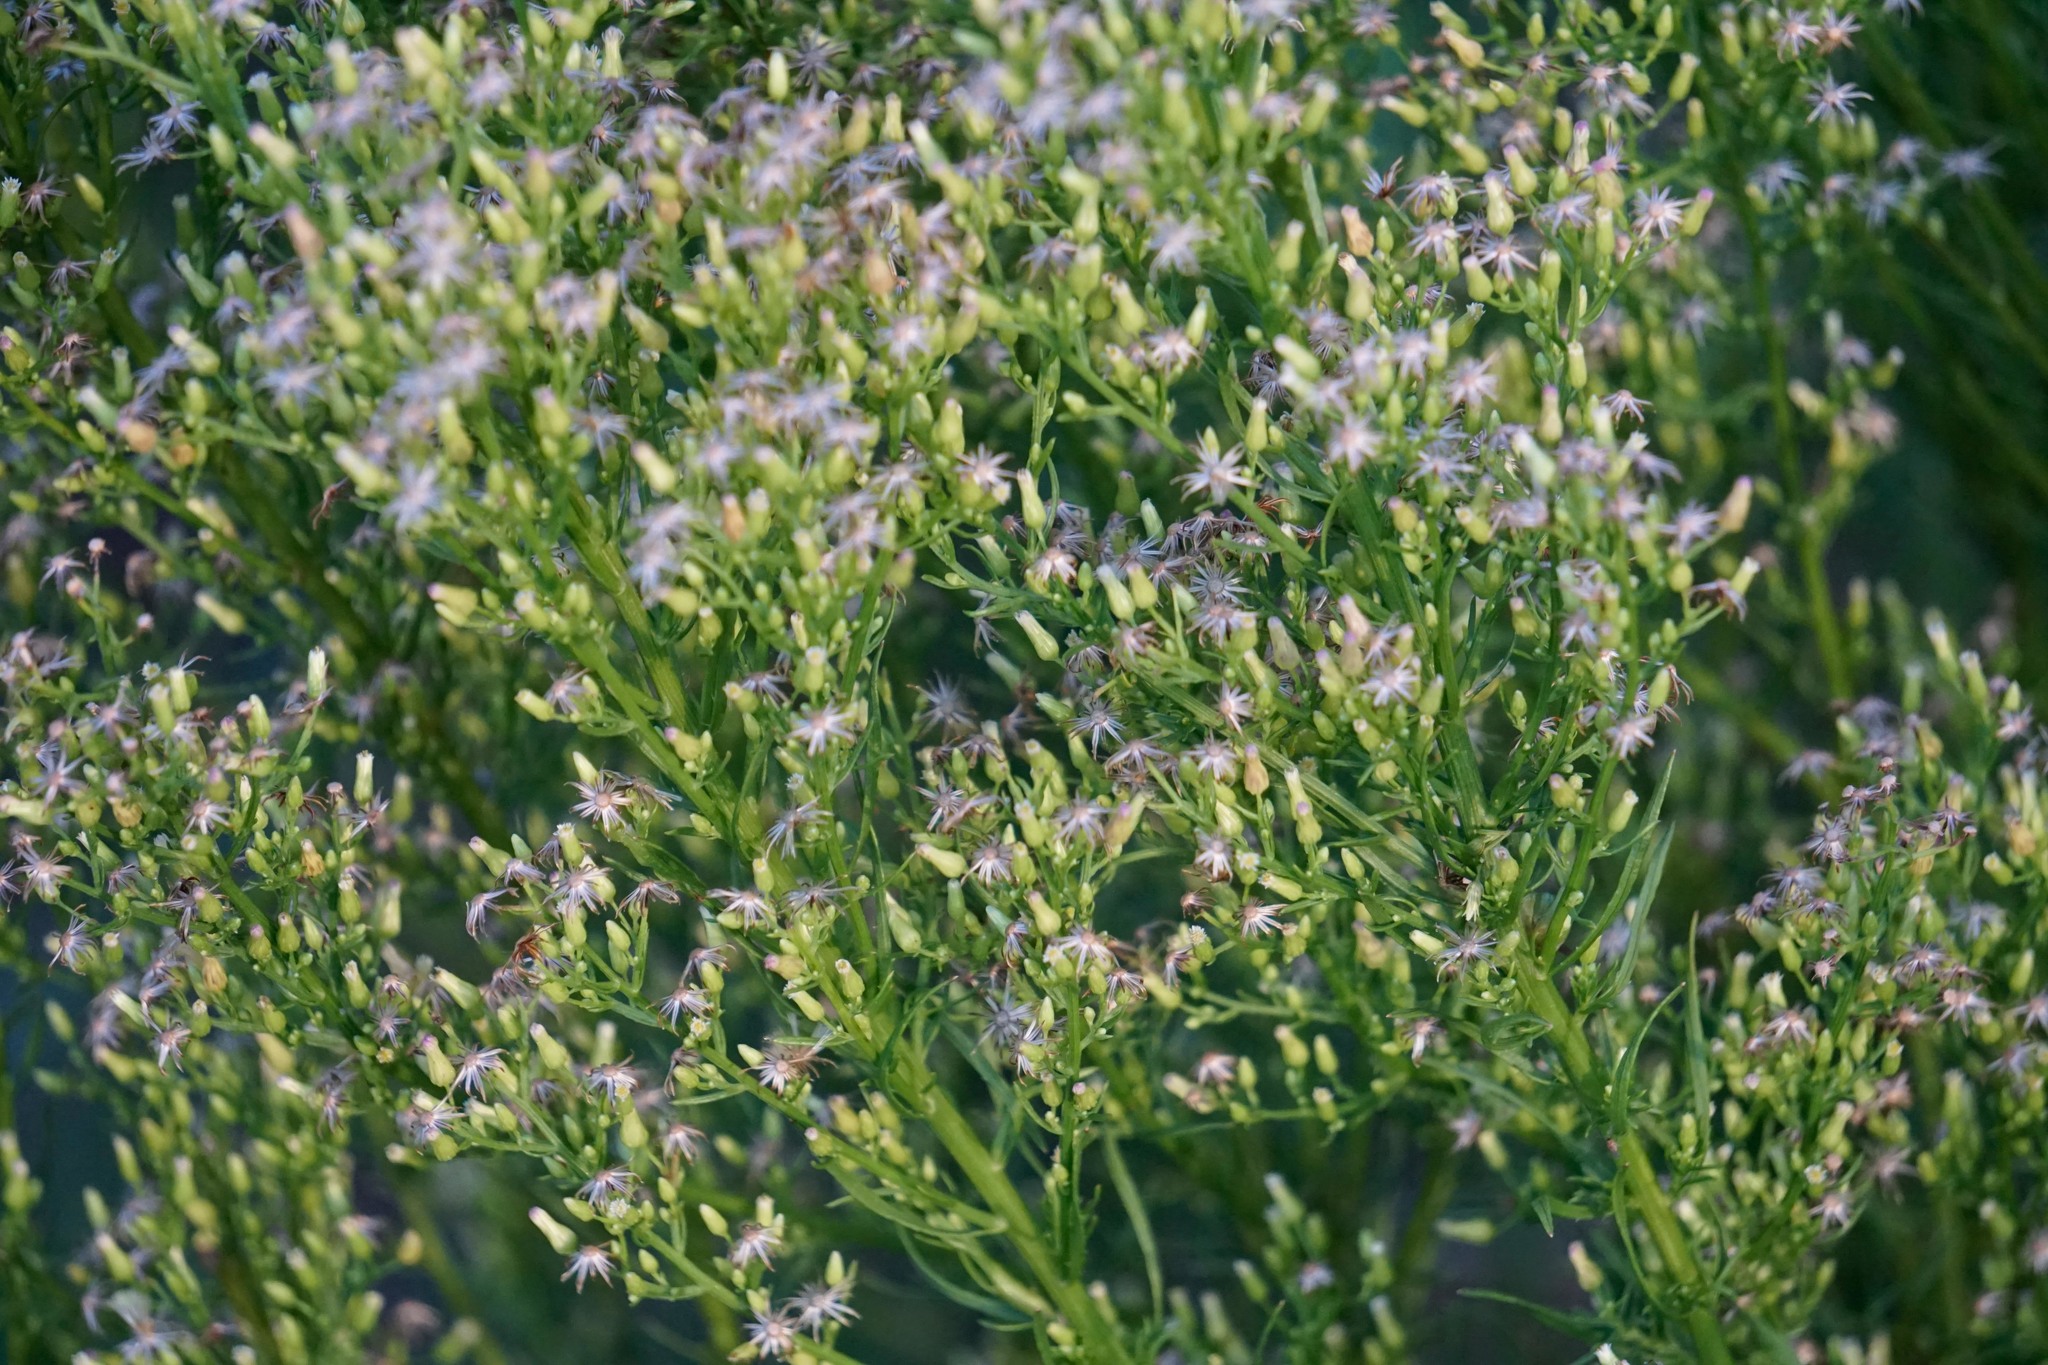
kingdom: Plantae
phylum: Tracheophyta
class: Magnoliopsida
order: Asterales
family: Asteraceae
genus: Erigeron
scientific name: Erigeron canadensis
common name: Canadian fleabane
